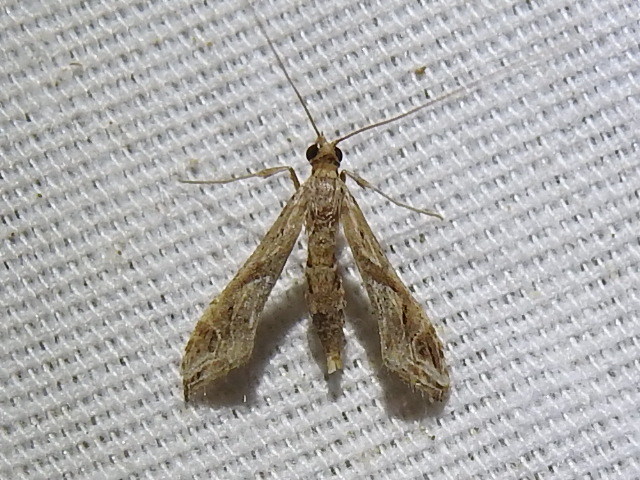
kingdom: Animalia
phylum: Arthropoda
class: Insecta
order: Lepidoptera
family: Crambidae
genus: Lineodes
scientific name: Lineodes integra
